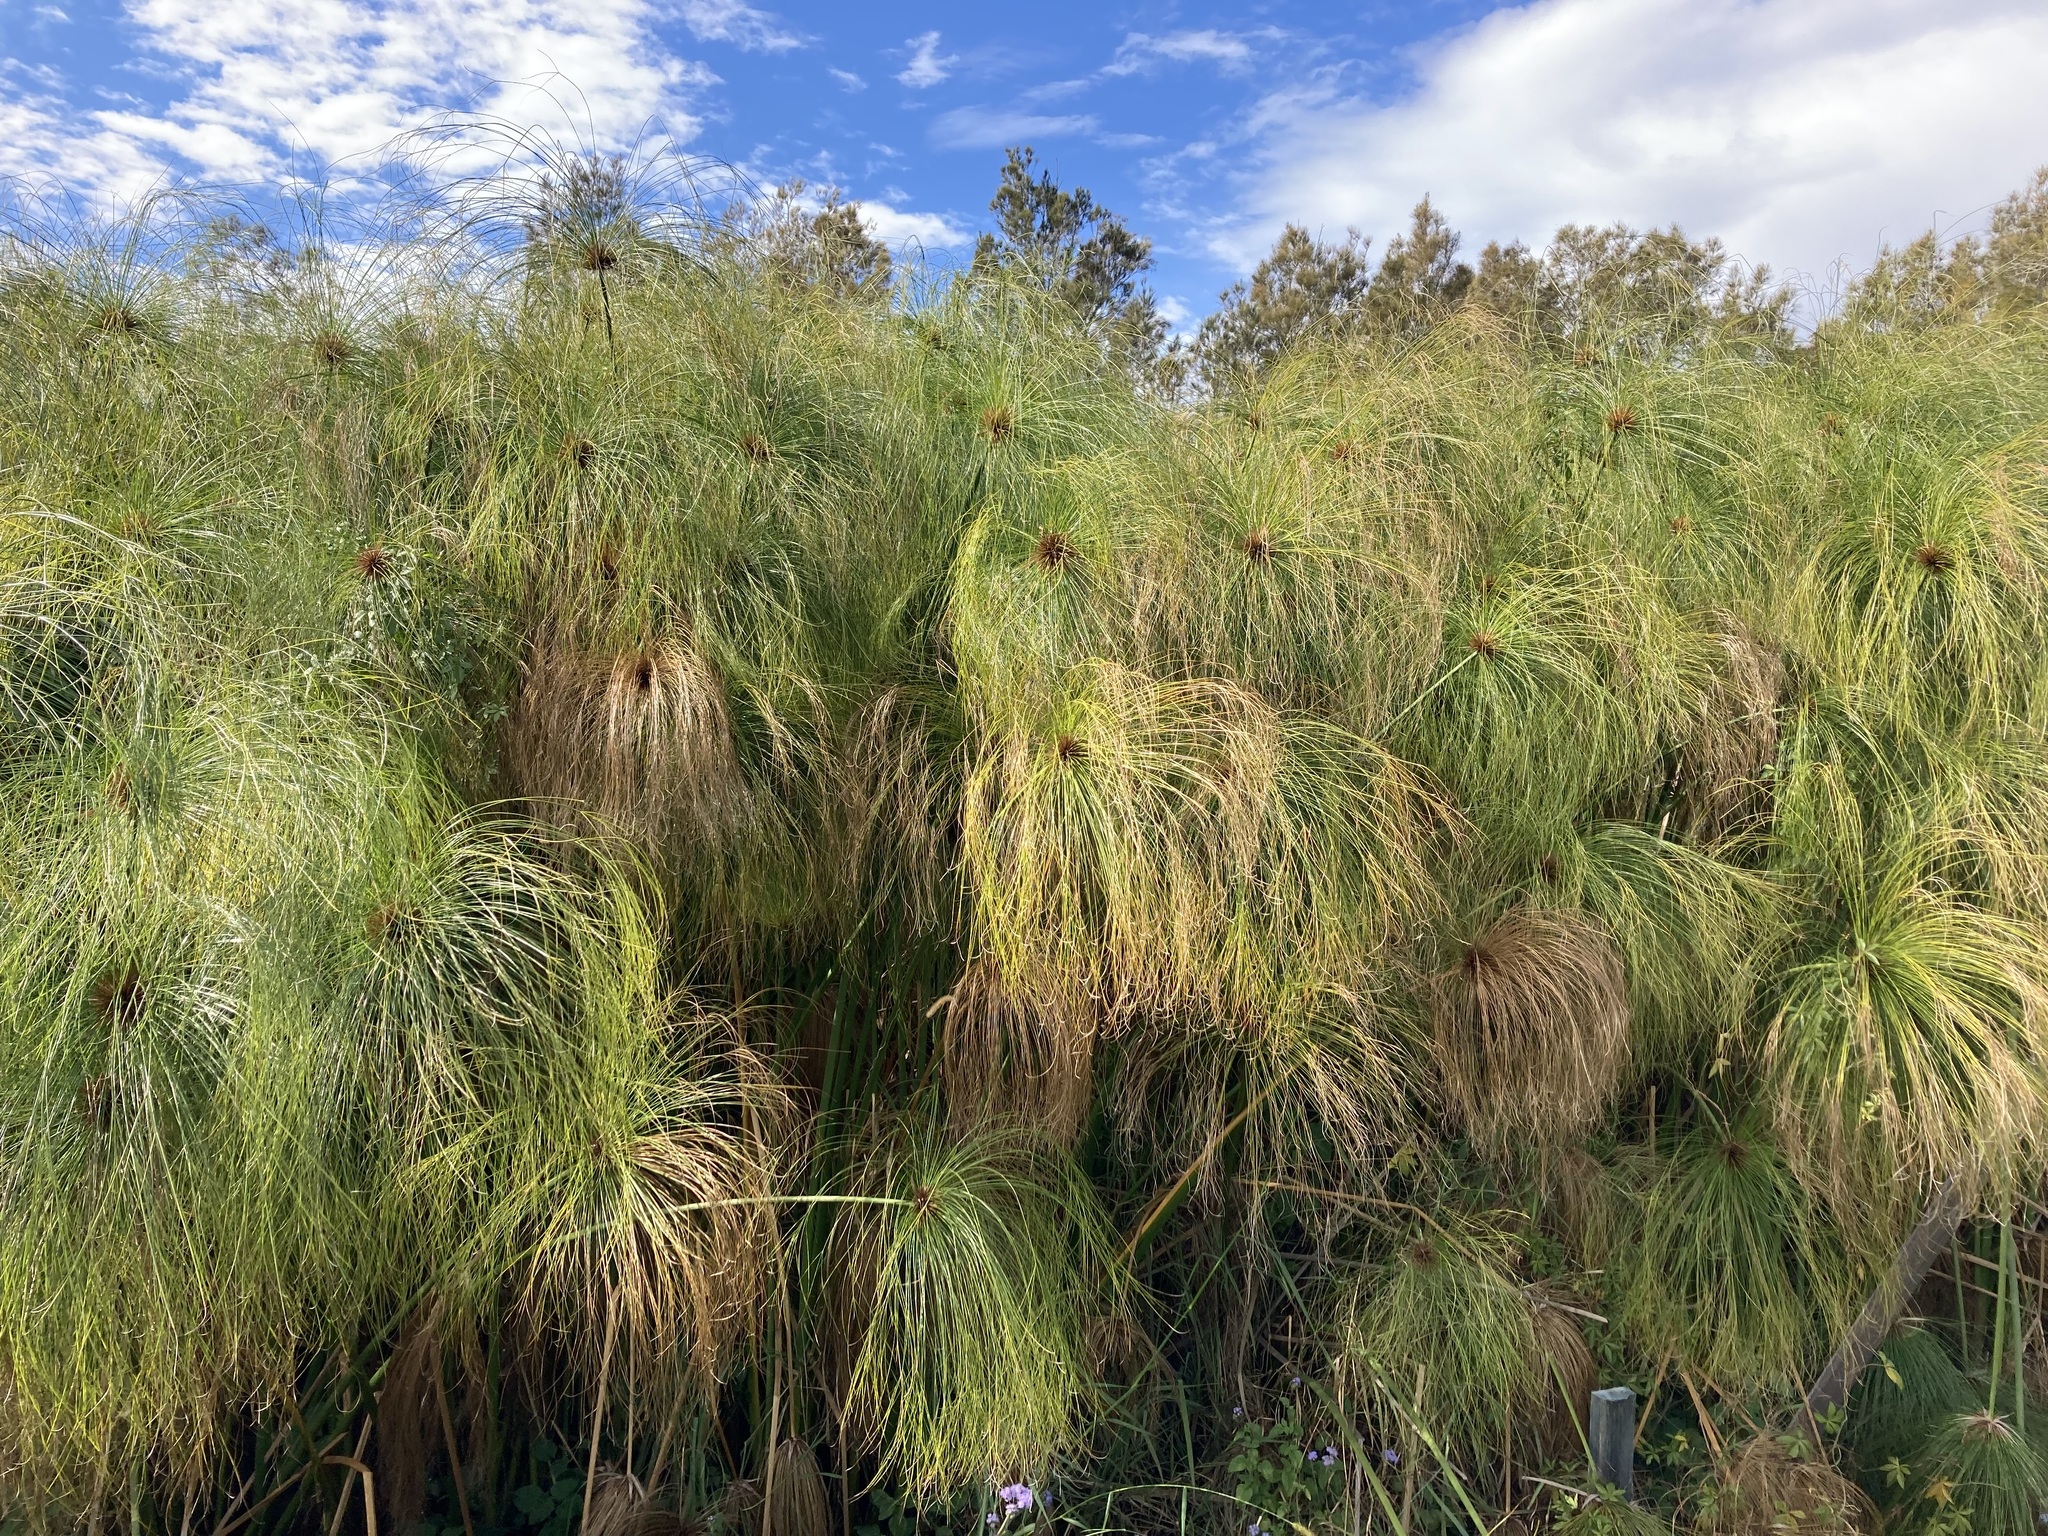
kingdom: Plantae
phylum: Tracheophyta
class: Liliopsida
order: Poales
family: Cyperaceae
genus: Cyperus
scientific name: Cyperus papyrus
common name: Papyrus
